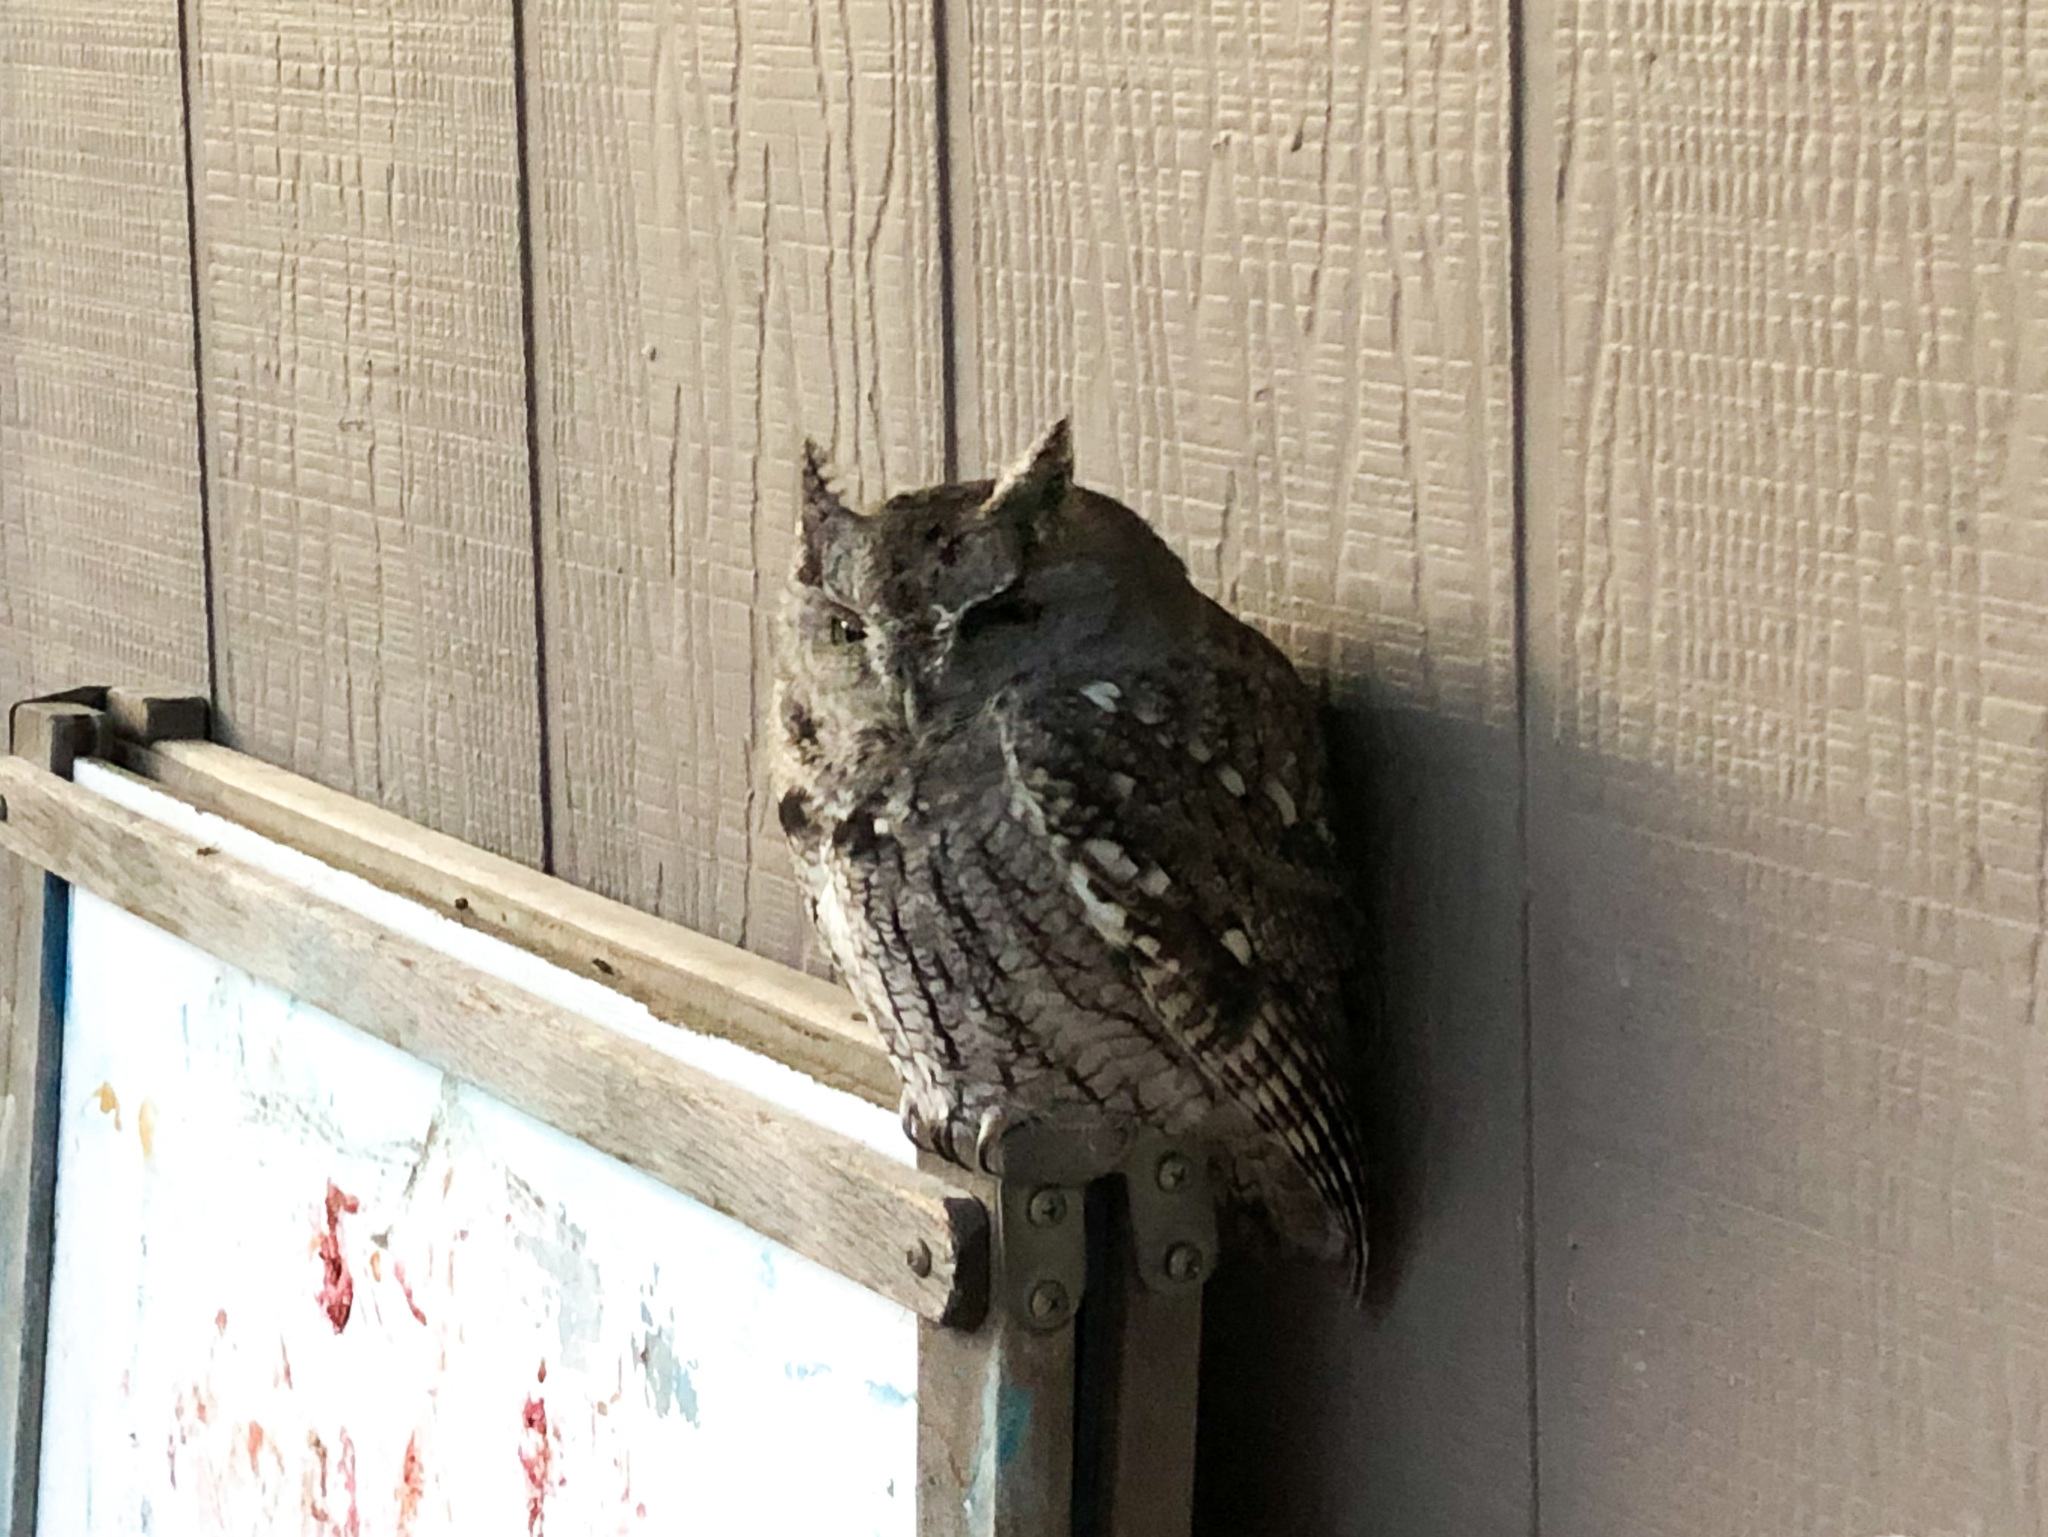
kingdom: Animalia
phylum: Chordata
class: Aves
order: Strigiformes
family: Strigidae
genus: Megascops
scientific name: Megascops asio
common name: Eastern screech-owl
